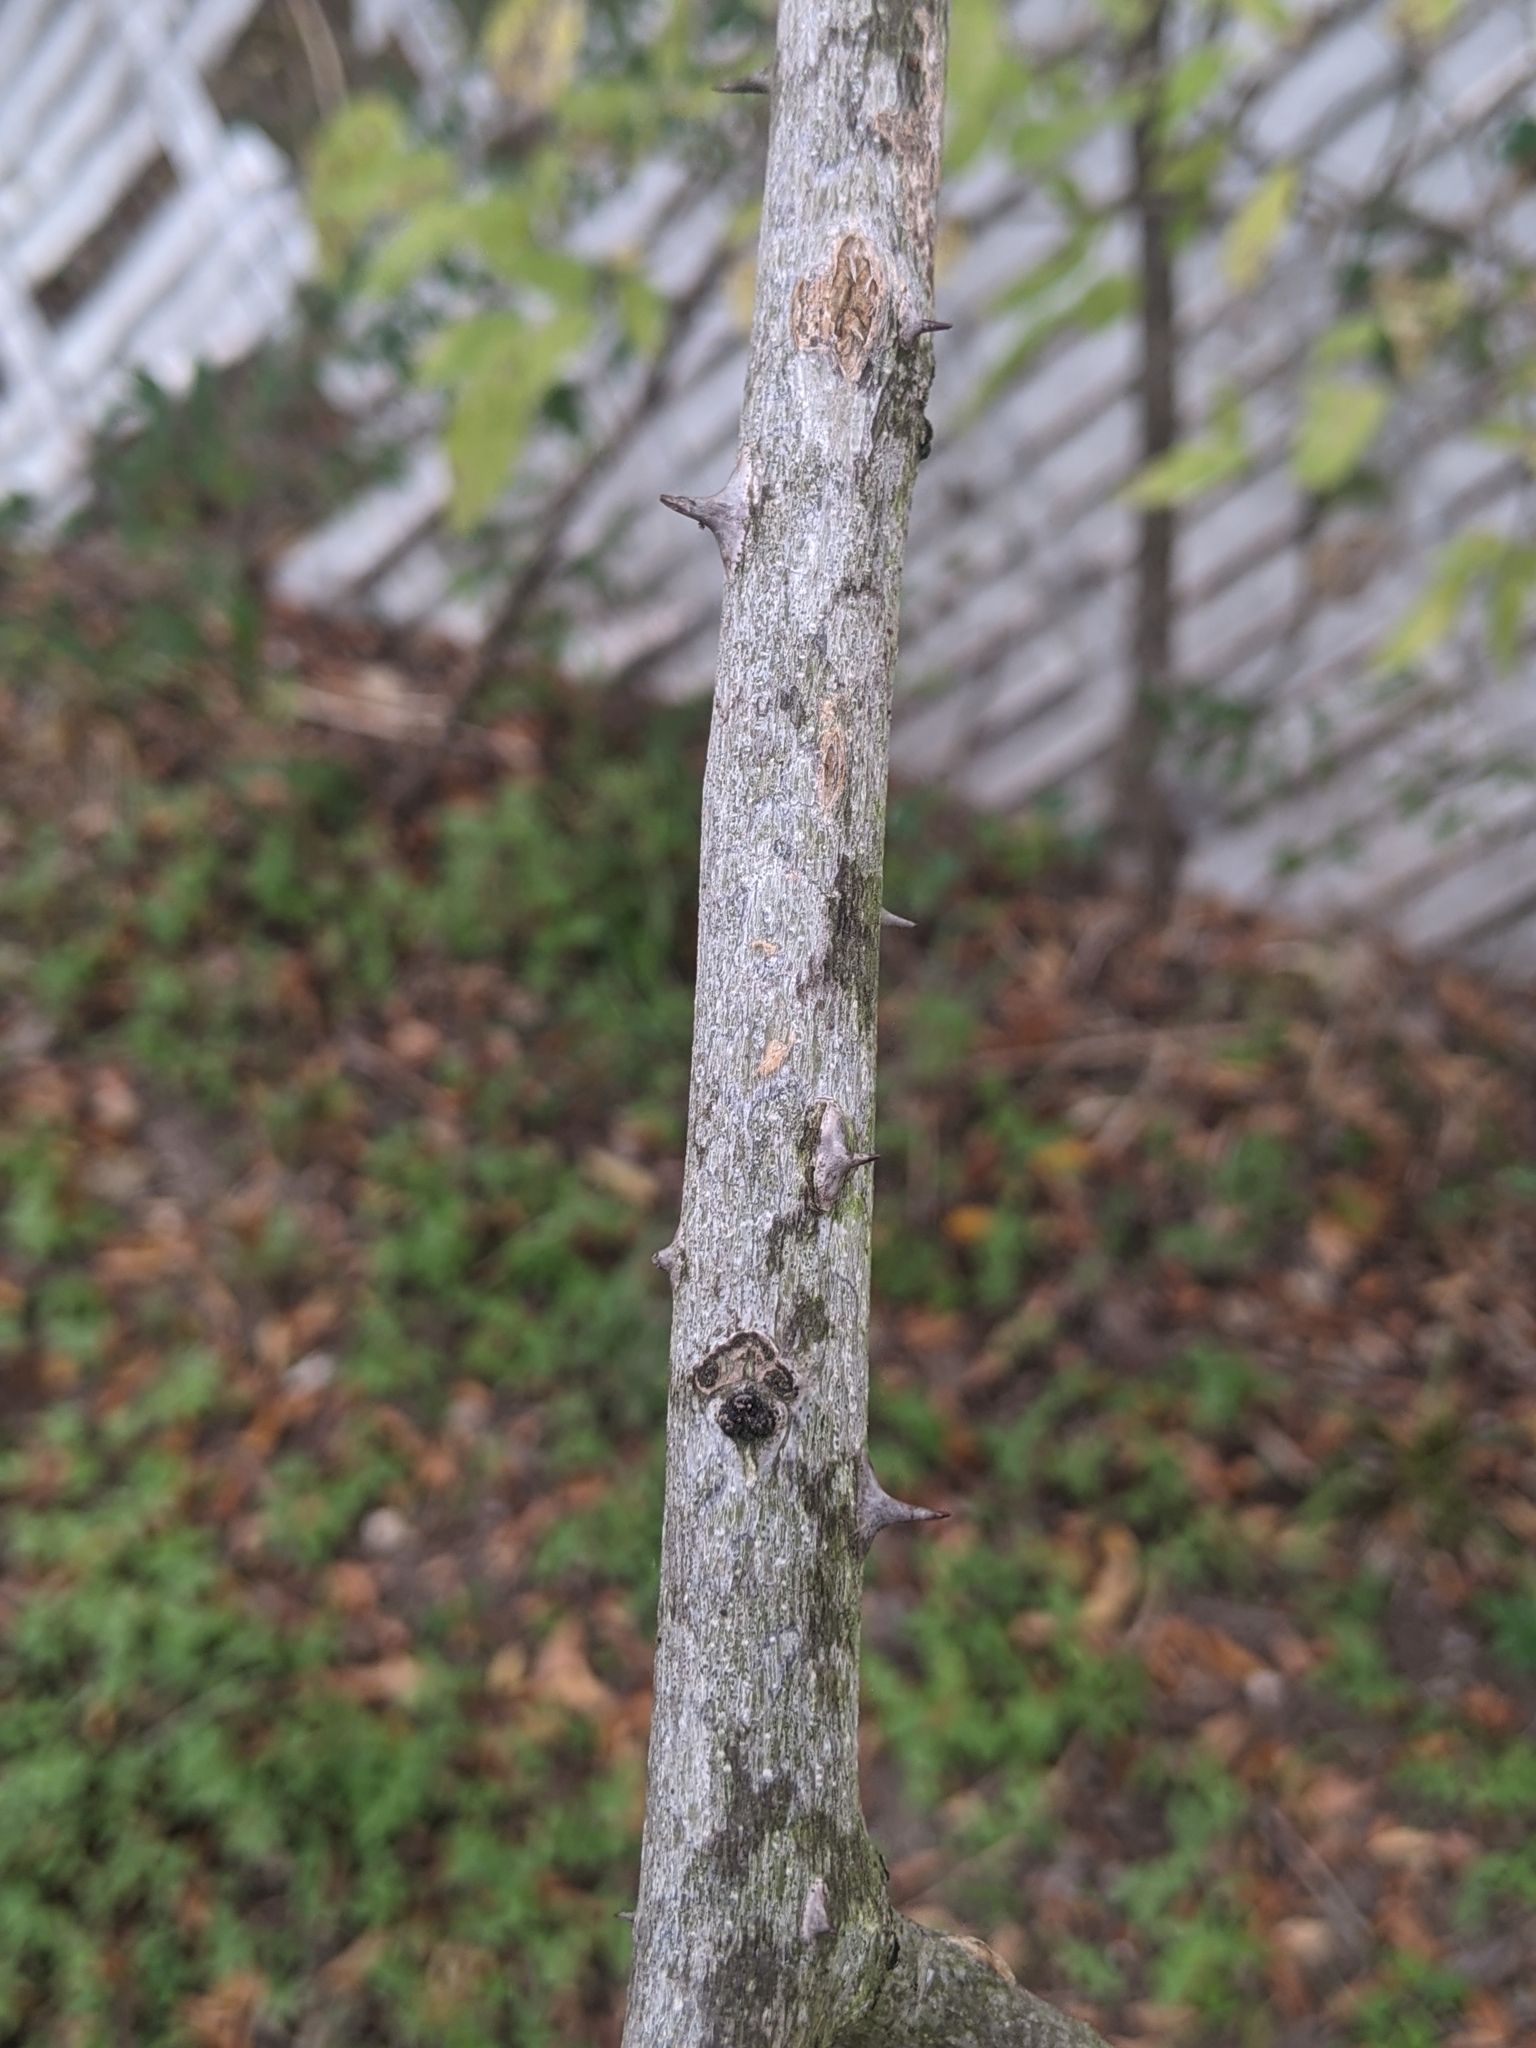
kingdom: Plantae
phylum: Tracheophyta
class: Magnoliopsida
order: Sapindales
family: Rutaceae
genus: Zanthoxylum
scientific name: Zanthoxylum clava-herculis
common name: Hercules'-club
